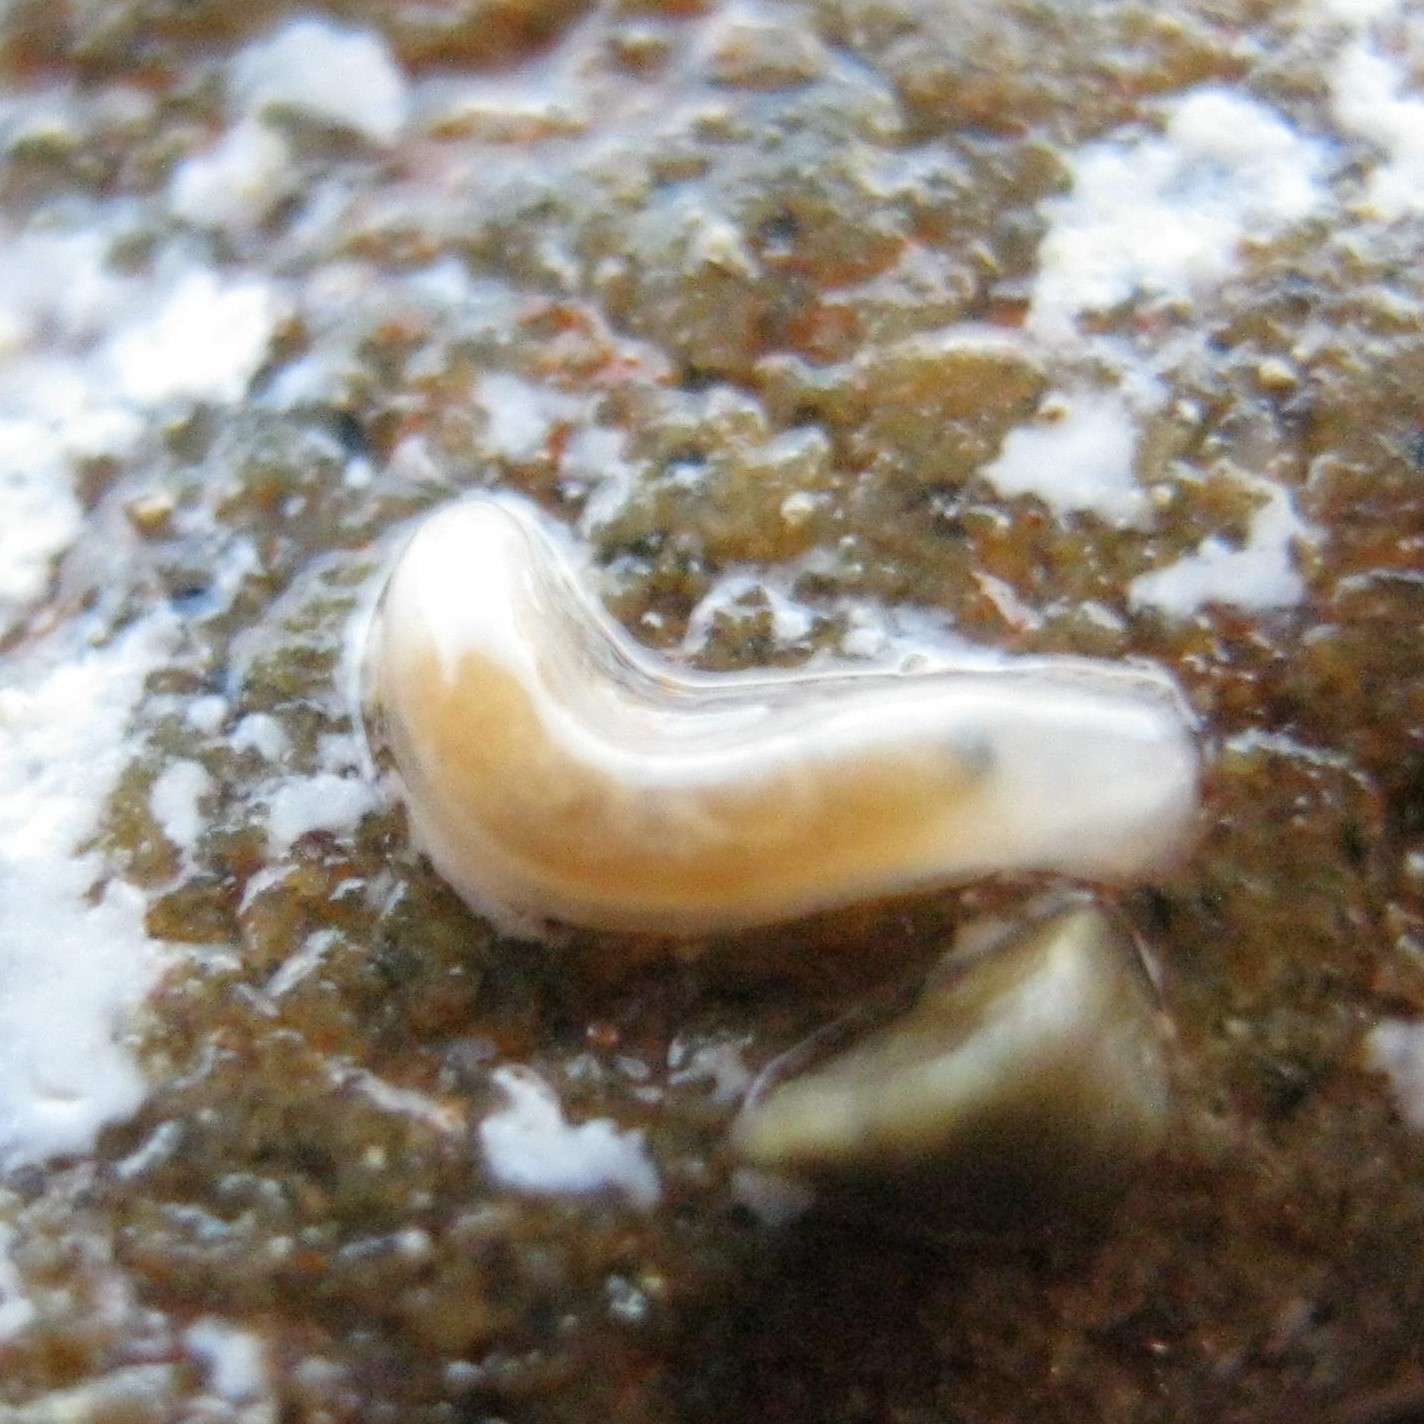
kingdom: Animalia
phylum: Mollusca
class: Gastropoda
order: Ellobiida
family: Otinidae
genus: Smeagol
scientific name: Smeagol climoi
